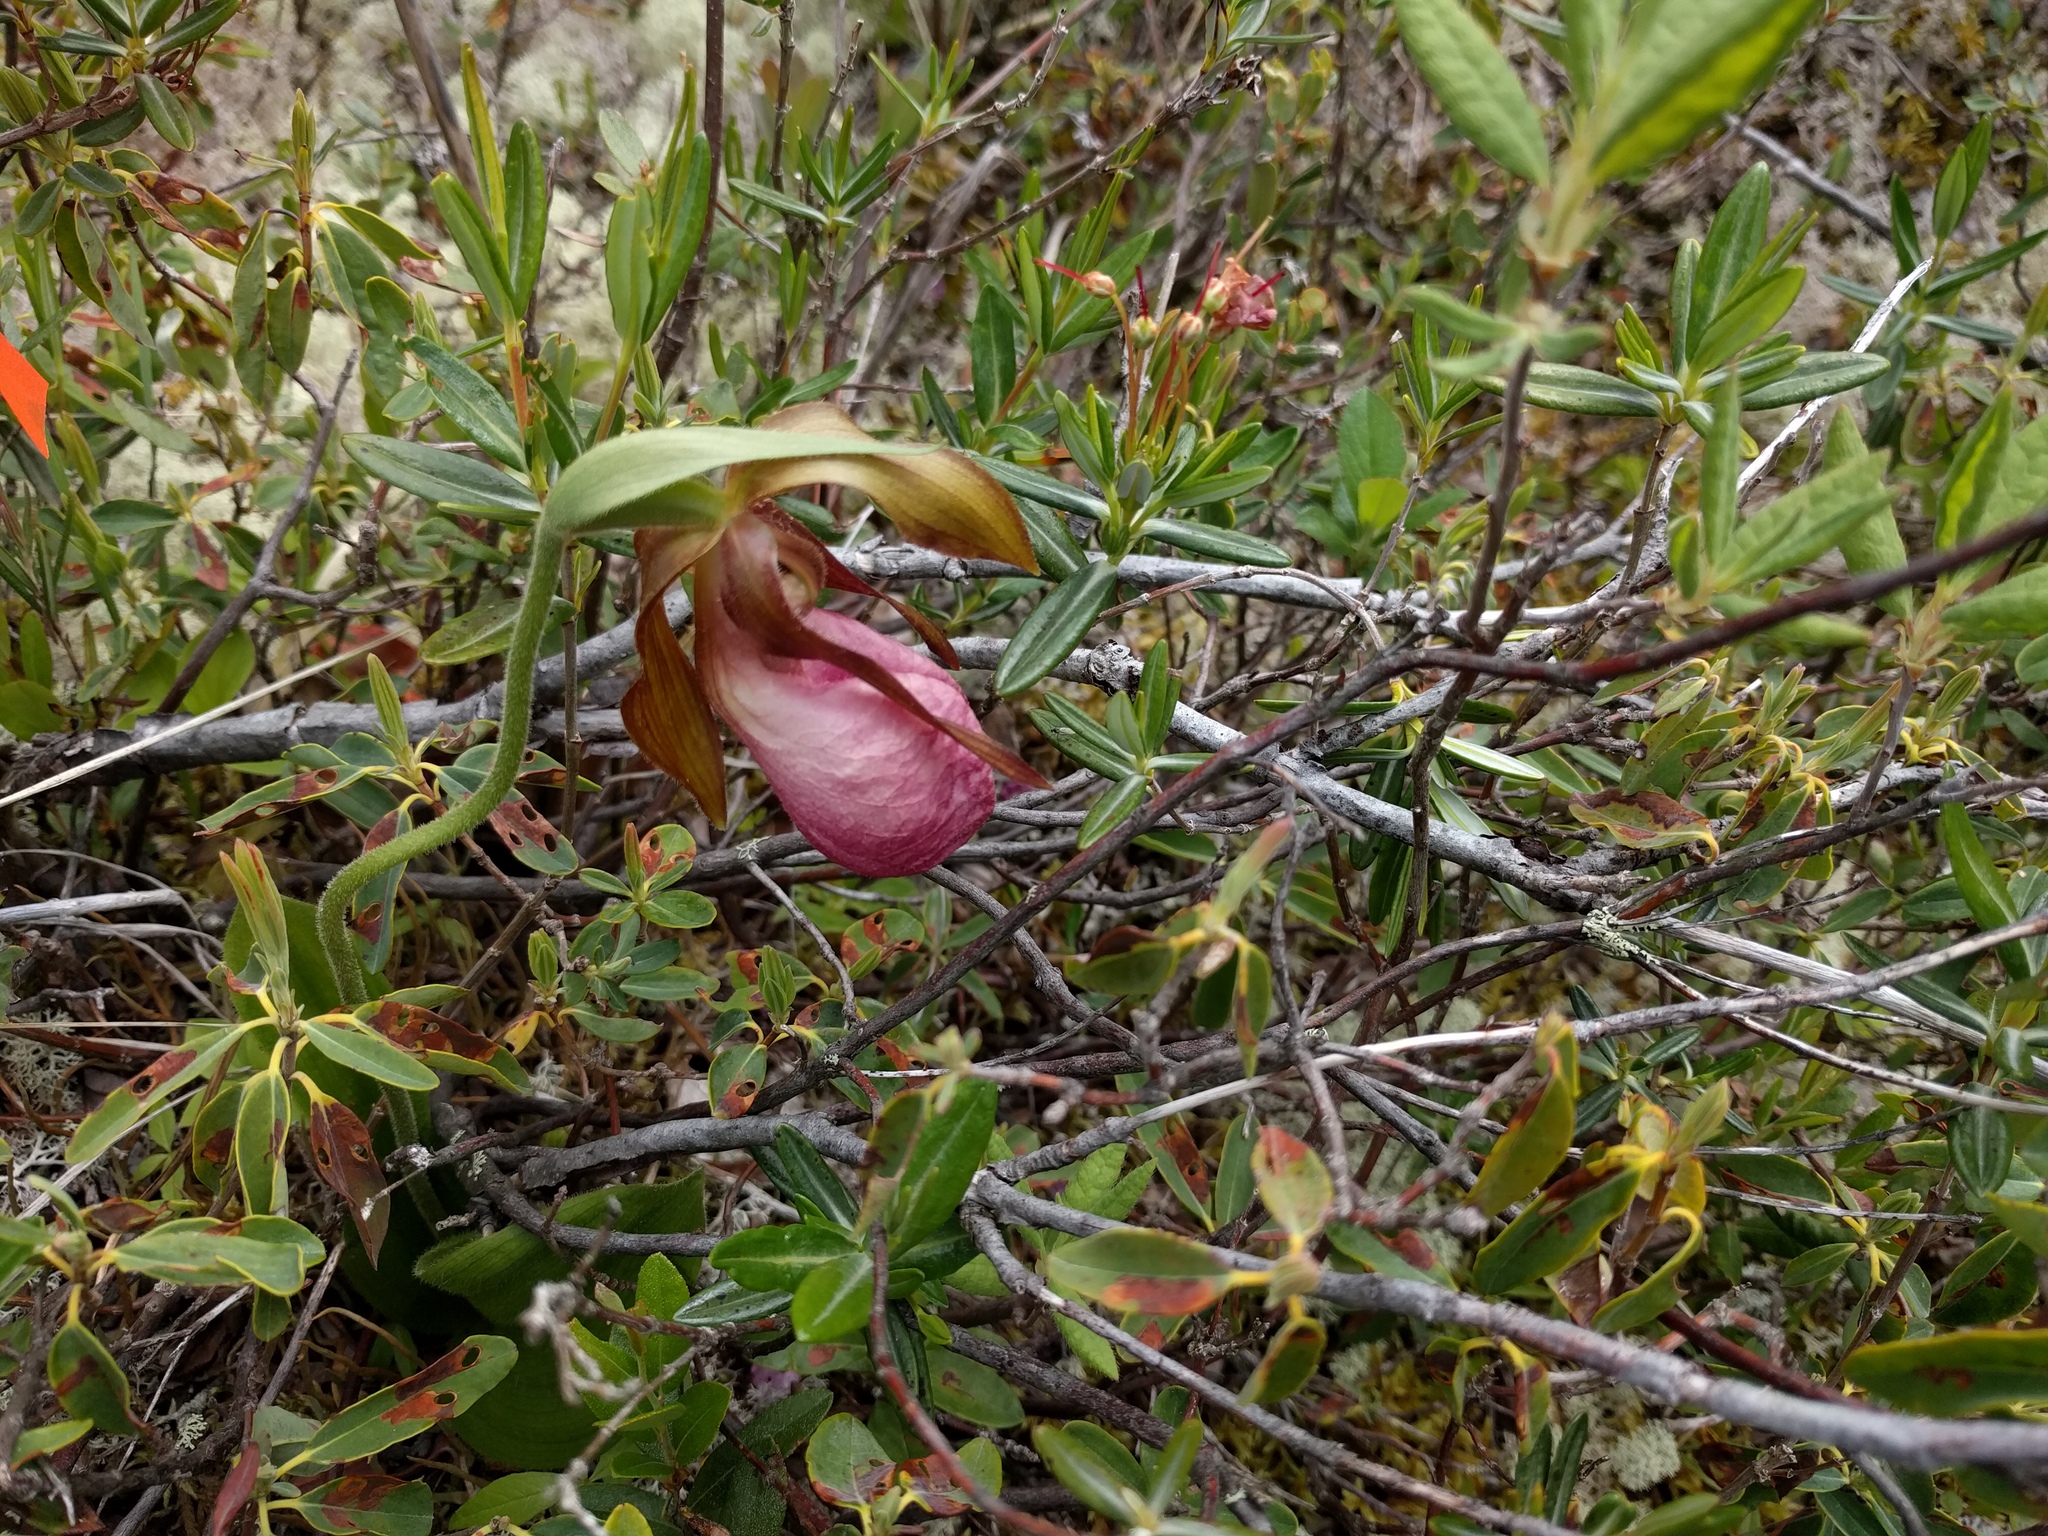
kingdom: Plantae
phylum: Tracheophyta
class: Liliopsida
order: Asparagales
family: Orchidaceae
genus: Cypripedium
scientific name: Cypripedium acaule
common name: Pink lady's-slipper
